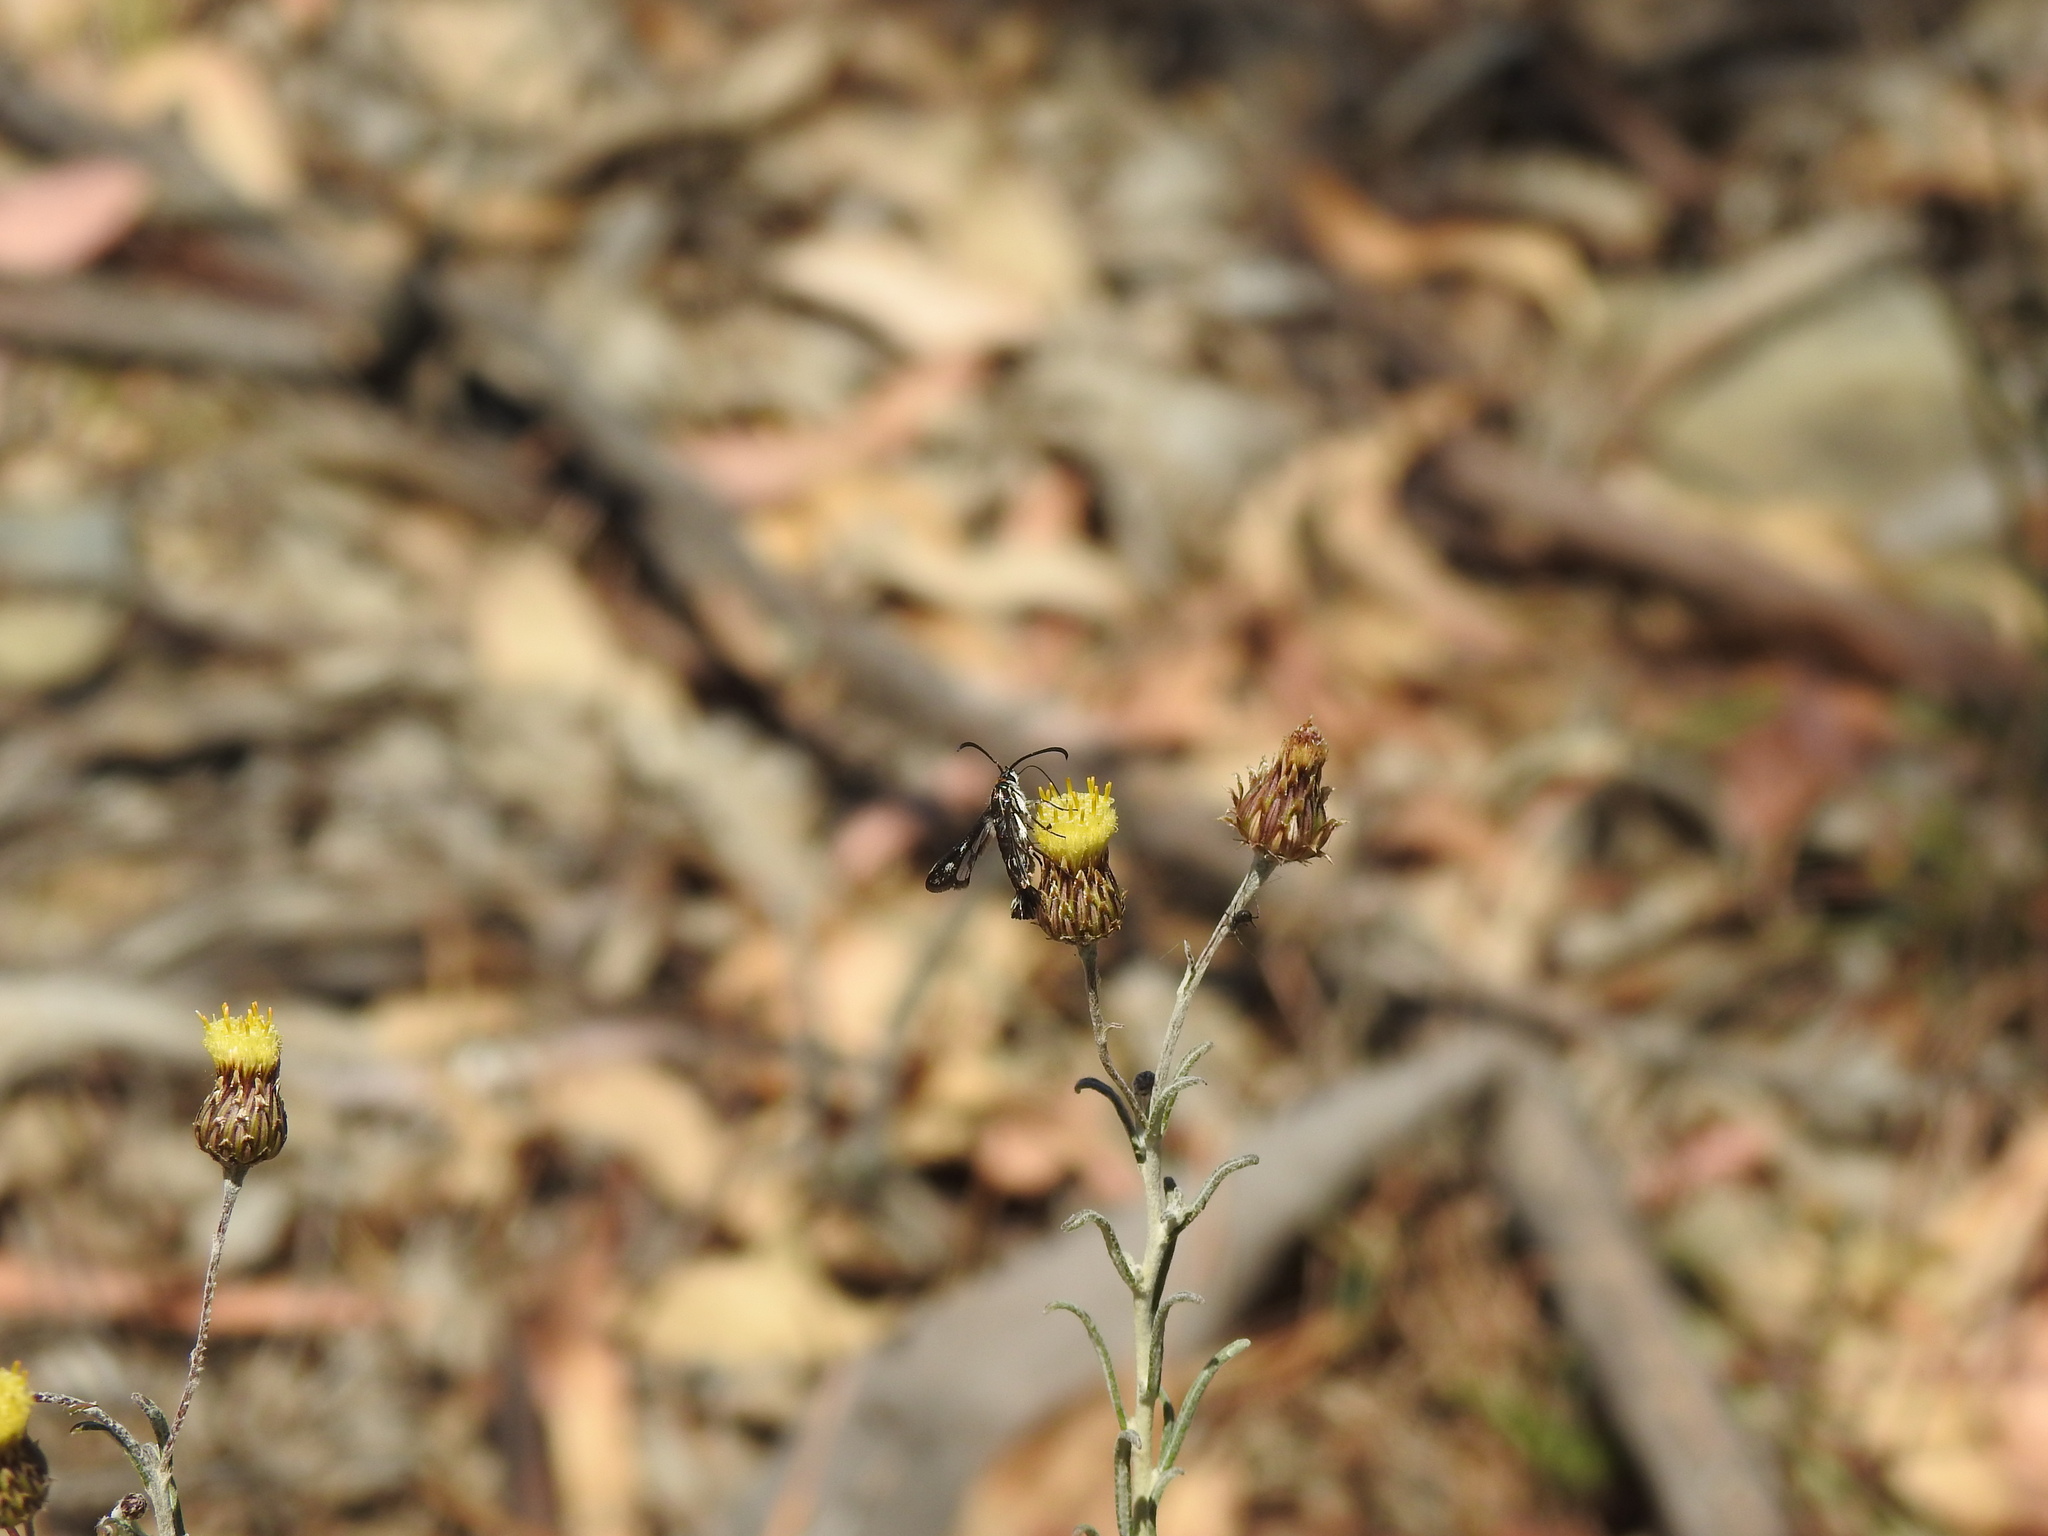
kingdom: Animalia
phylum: Arthropoda
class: Insecta
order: Lepidoptera
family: Sesiidae
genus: Pyropteron
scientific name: Pyropteron meriaeformis
